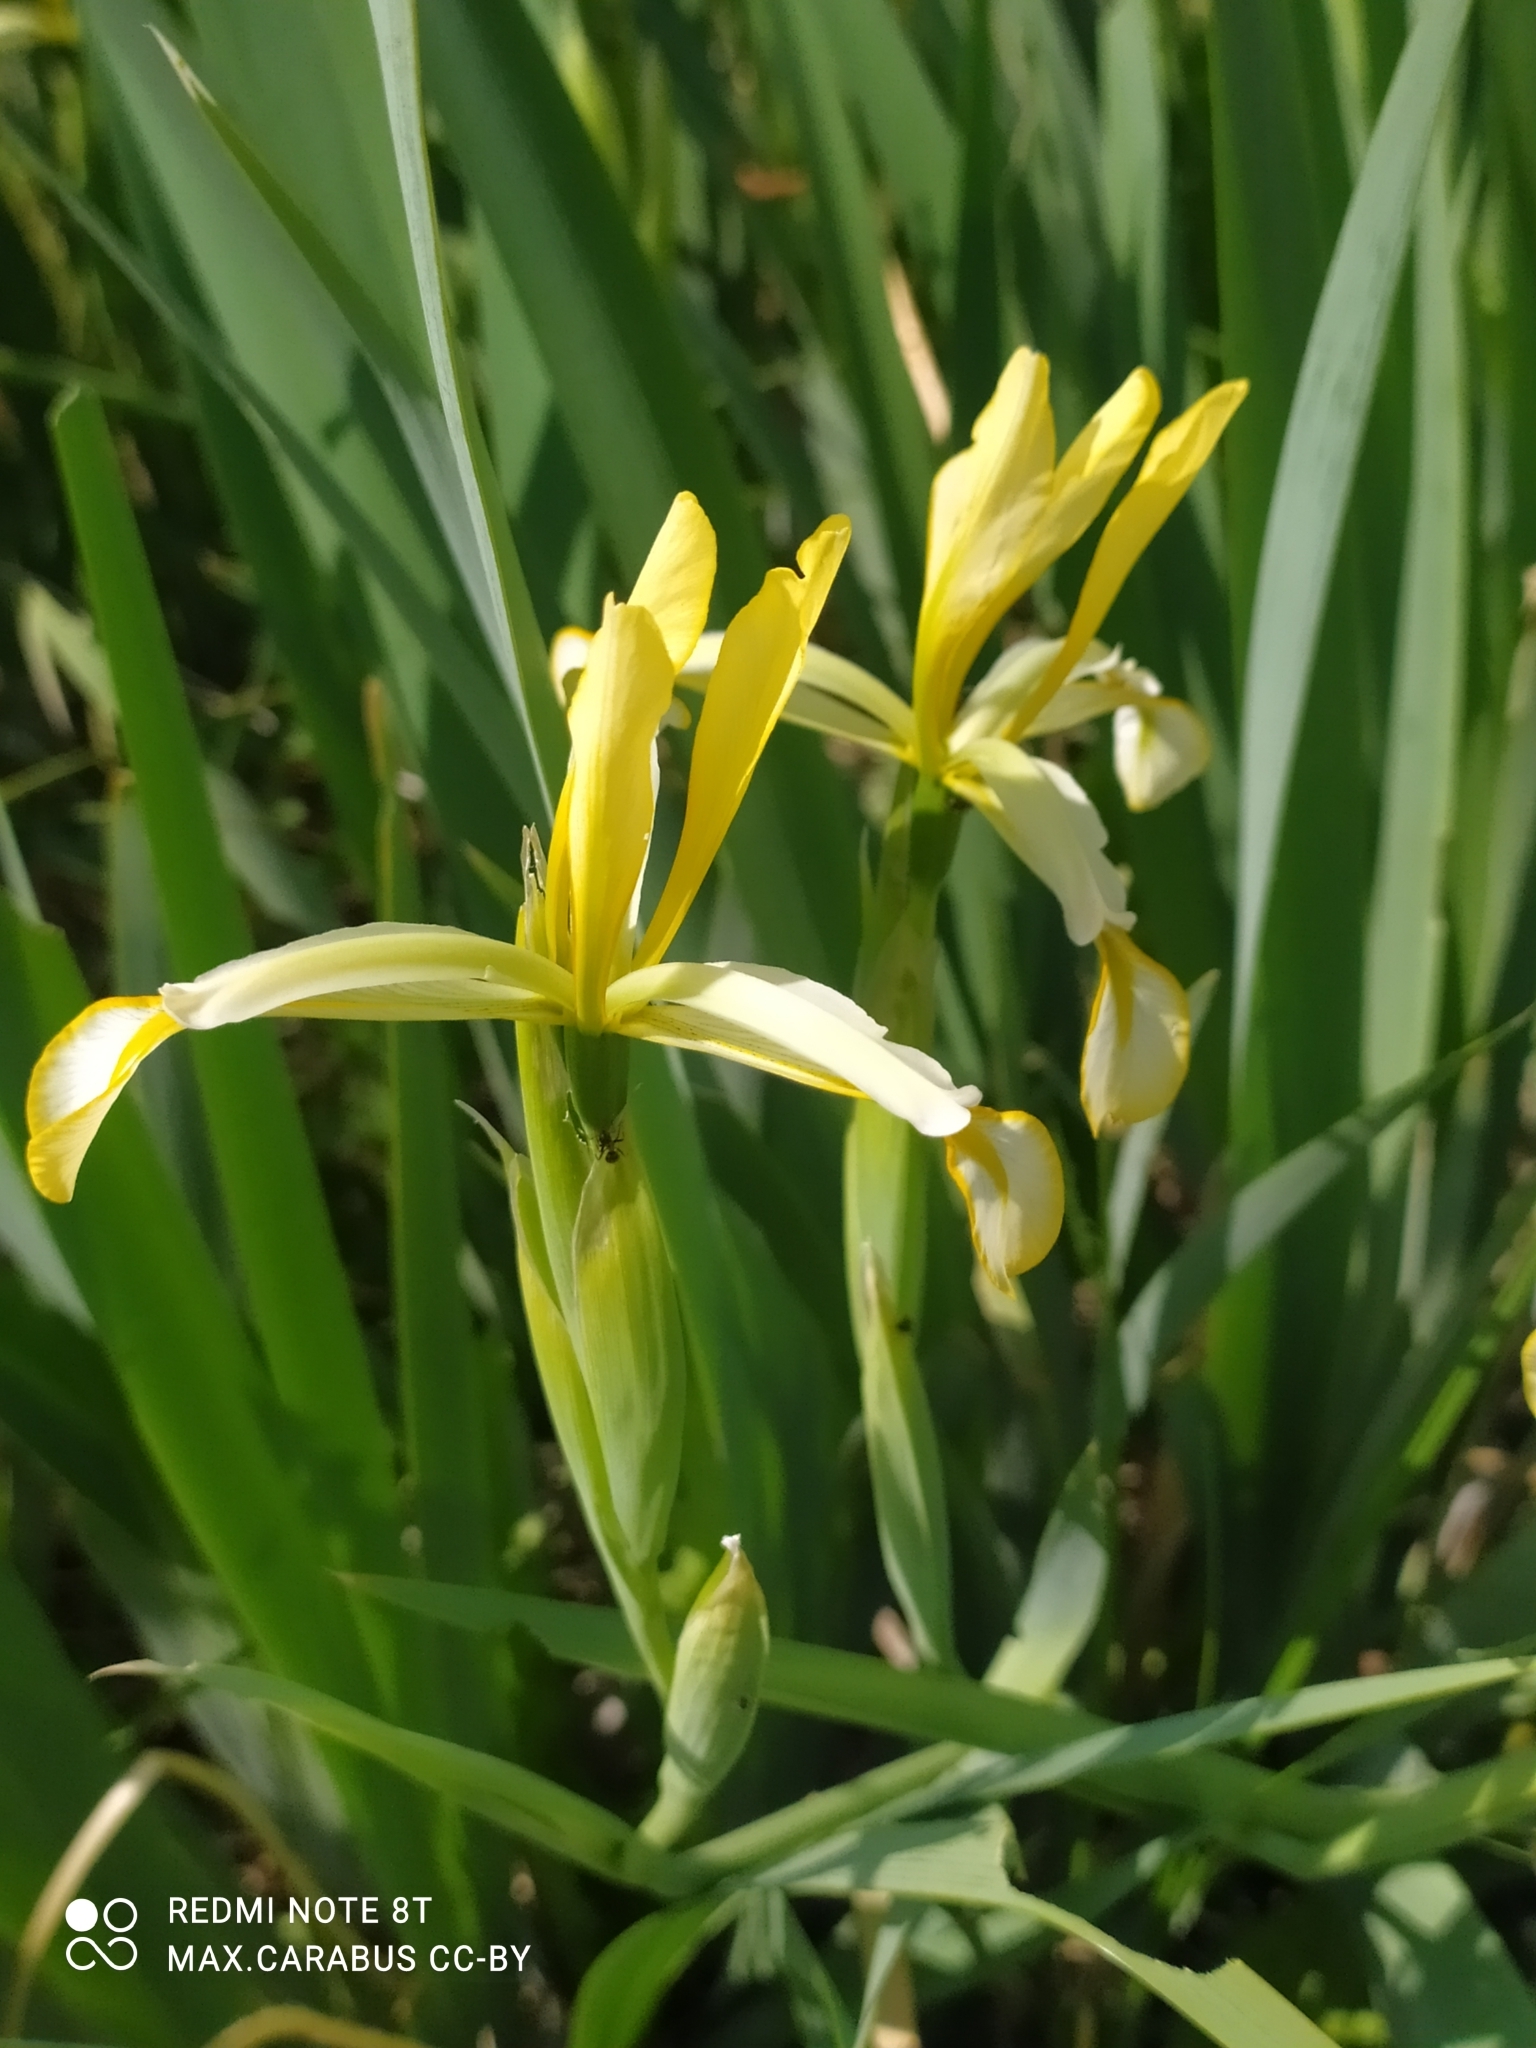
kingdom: Plantae
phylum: Tracheophyta
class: Liliopsida
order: Asparagales
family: Iridaceae
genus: Iris
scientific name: Iris halophila
